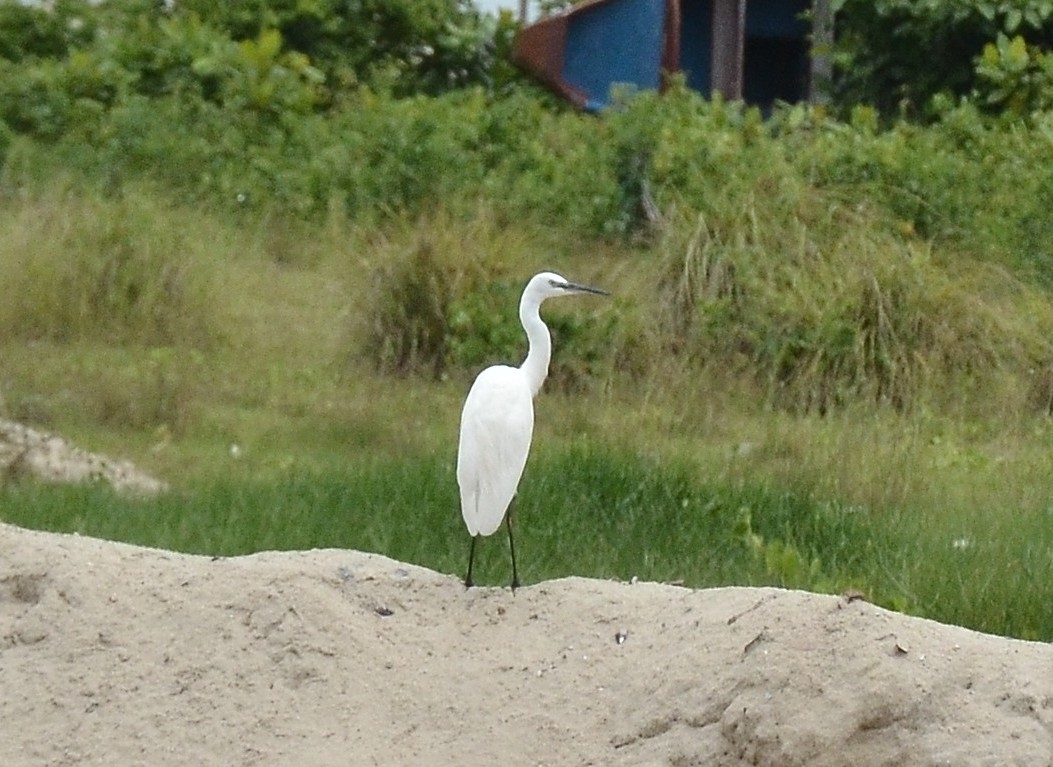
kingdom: Animalia
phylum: Chordata
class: Aves
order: Pelecaniformes
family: Ardeidae
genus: Egretta
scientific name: Egretta garzetta
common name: Little egret
